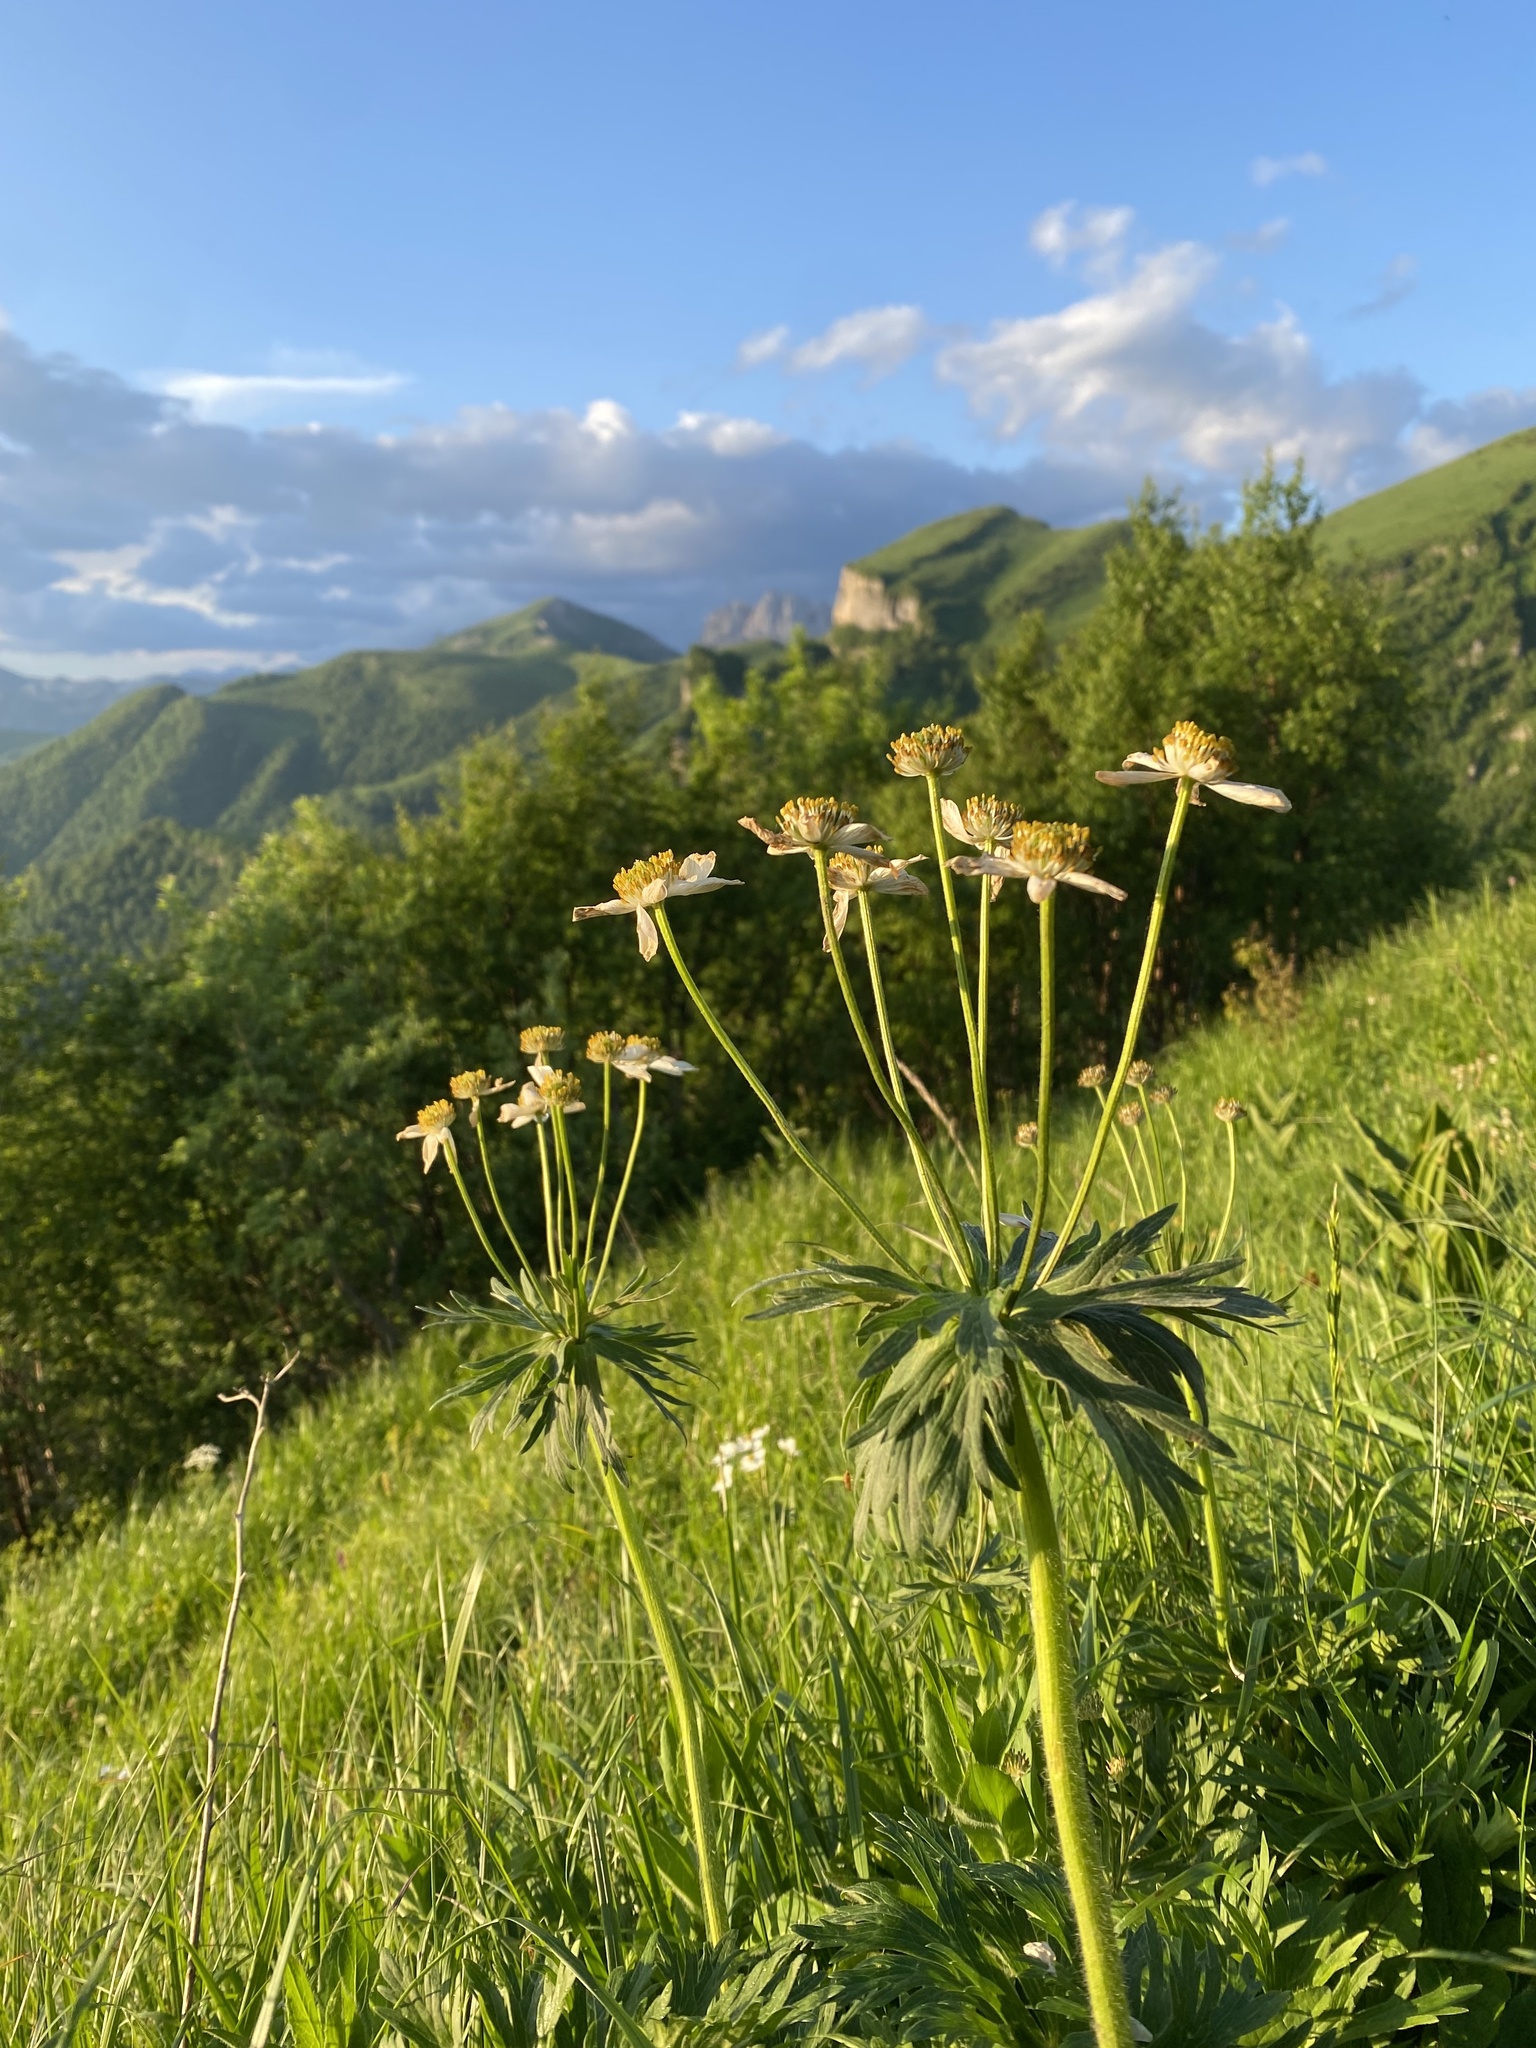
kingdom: Plantae
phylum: Tracheophyta
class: Magnoliopsida
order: Ranunculales
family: Ranunculaceae
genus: Anemonastrum
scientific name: Anemonastrum narcissiflorum
